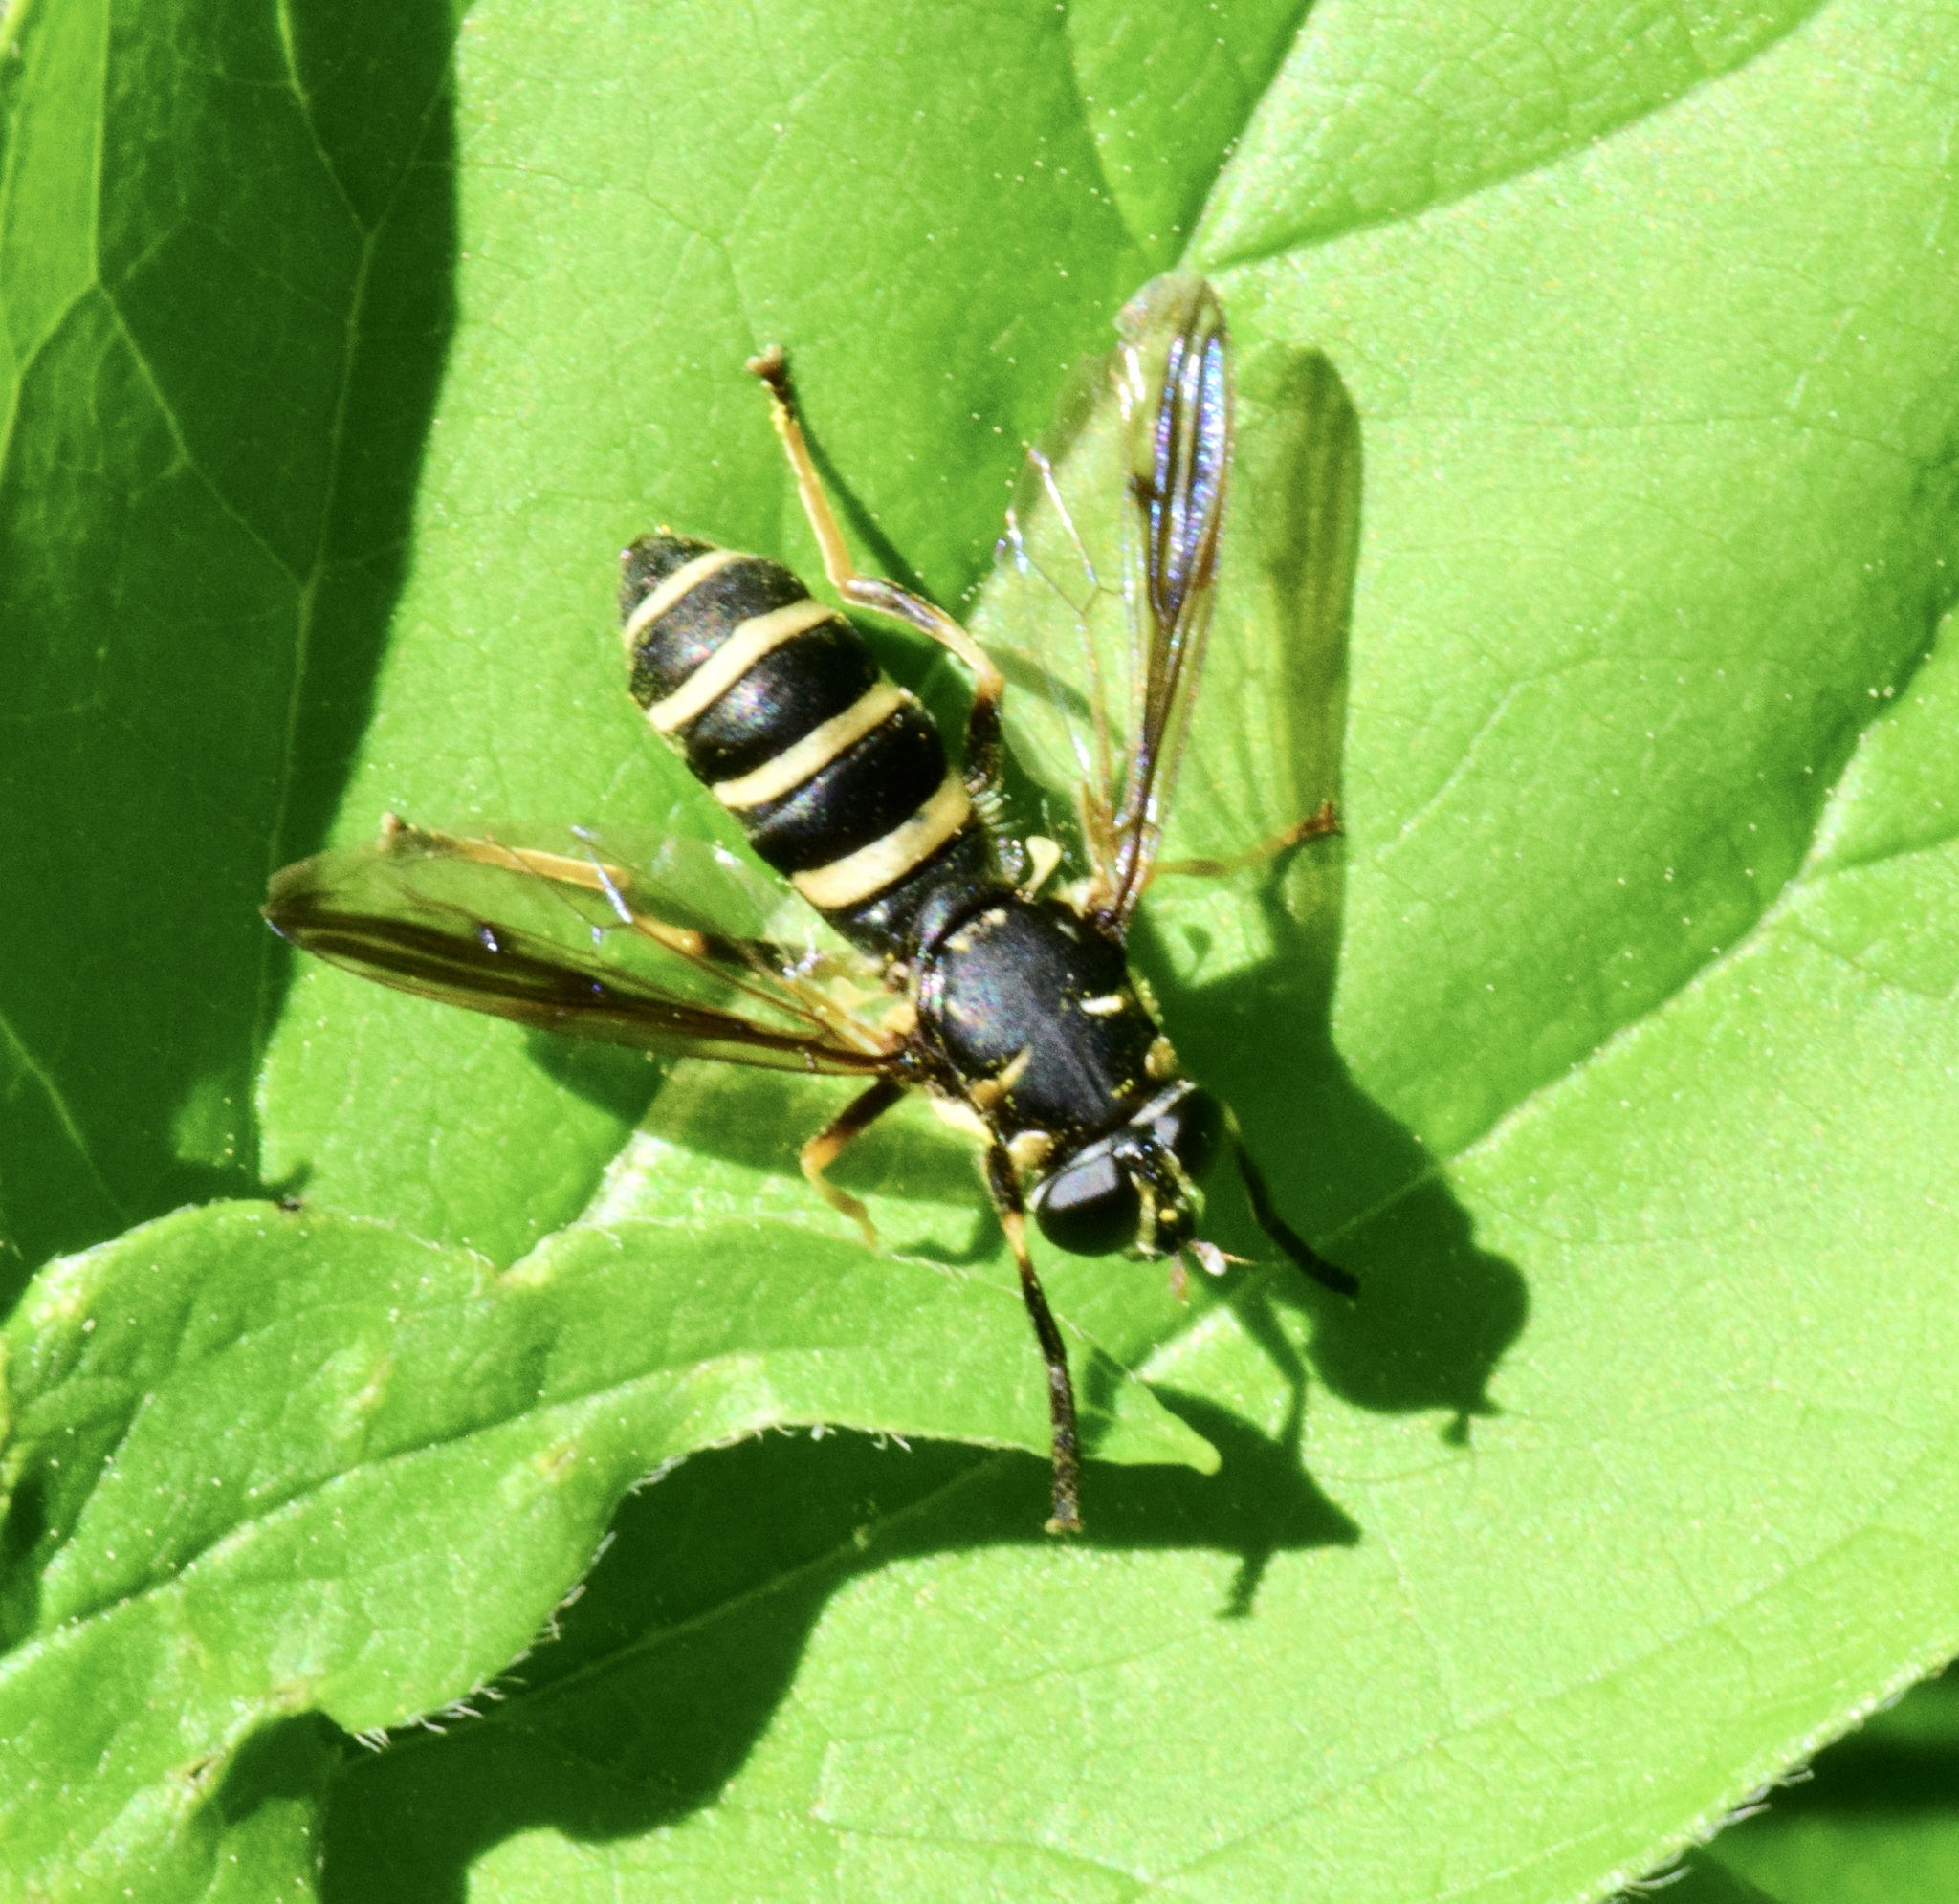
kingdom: Animalia
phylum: Arthropoda
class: Insecta
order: Diptera
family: Syrphidae
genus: Temnostoma
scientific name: Temnostoma barberi
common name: Bare-bellied falsehorn
